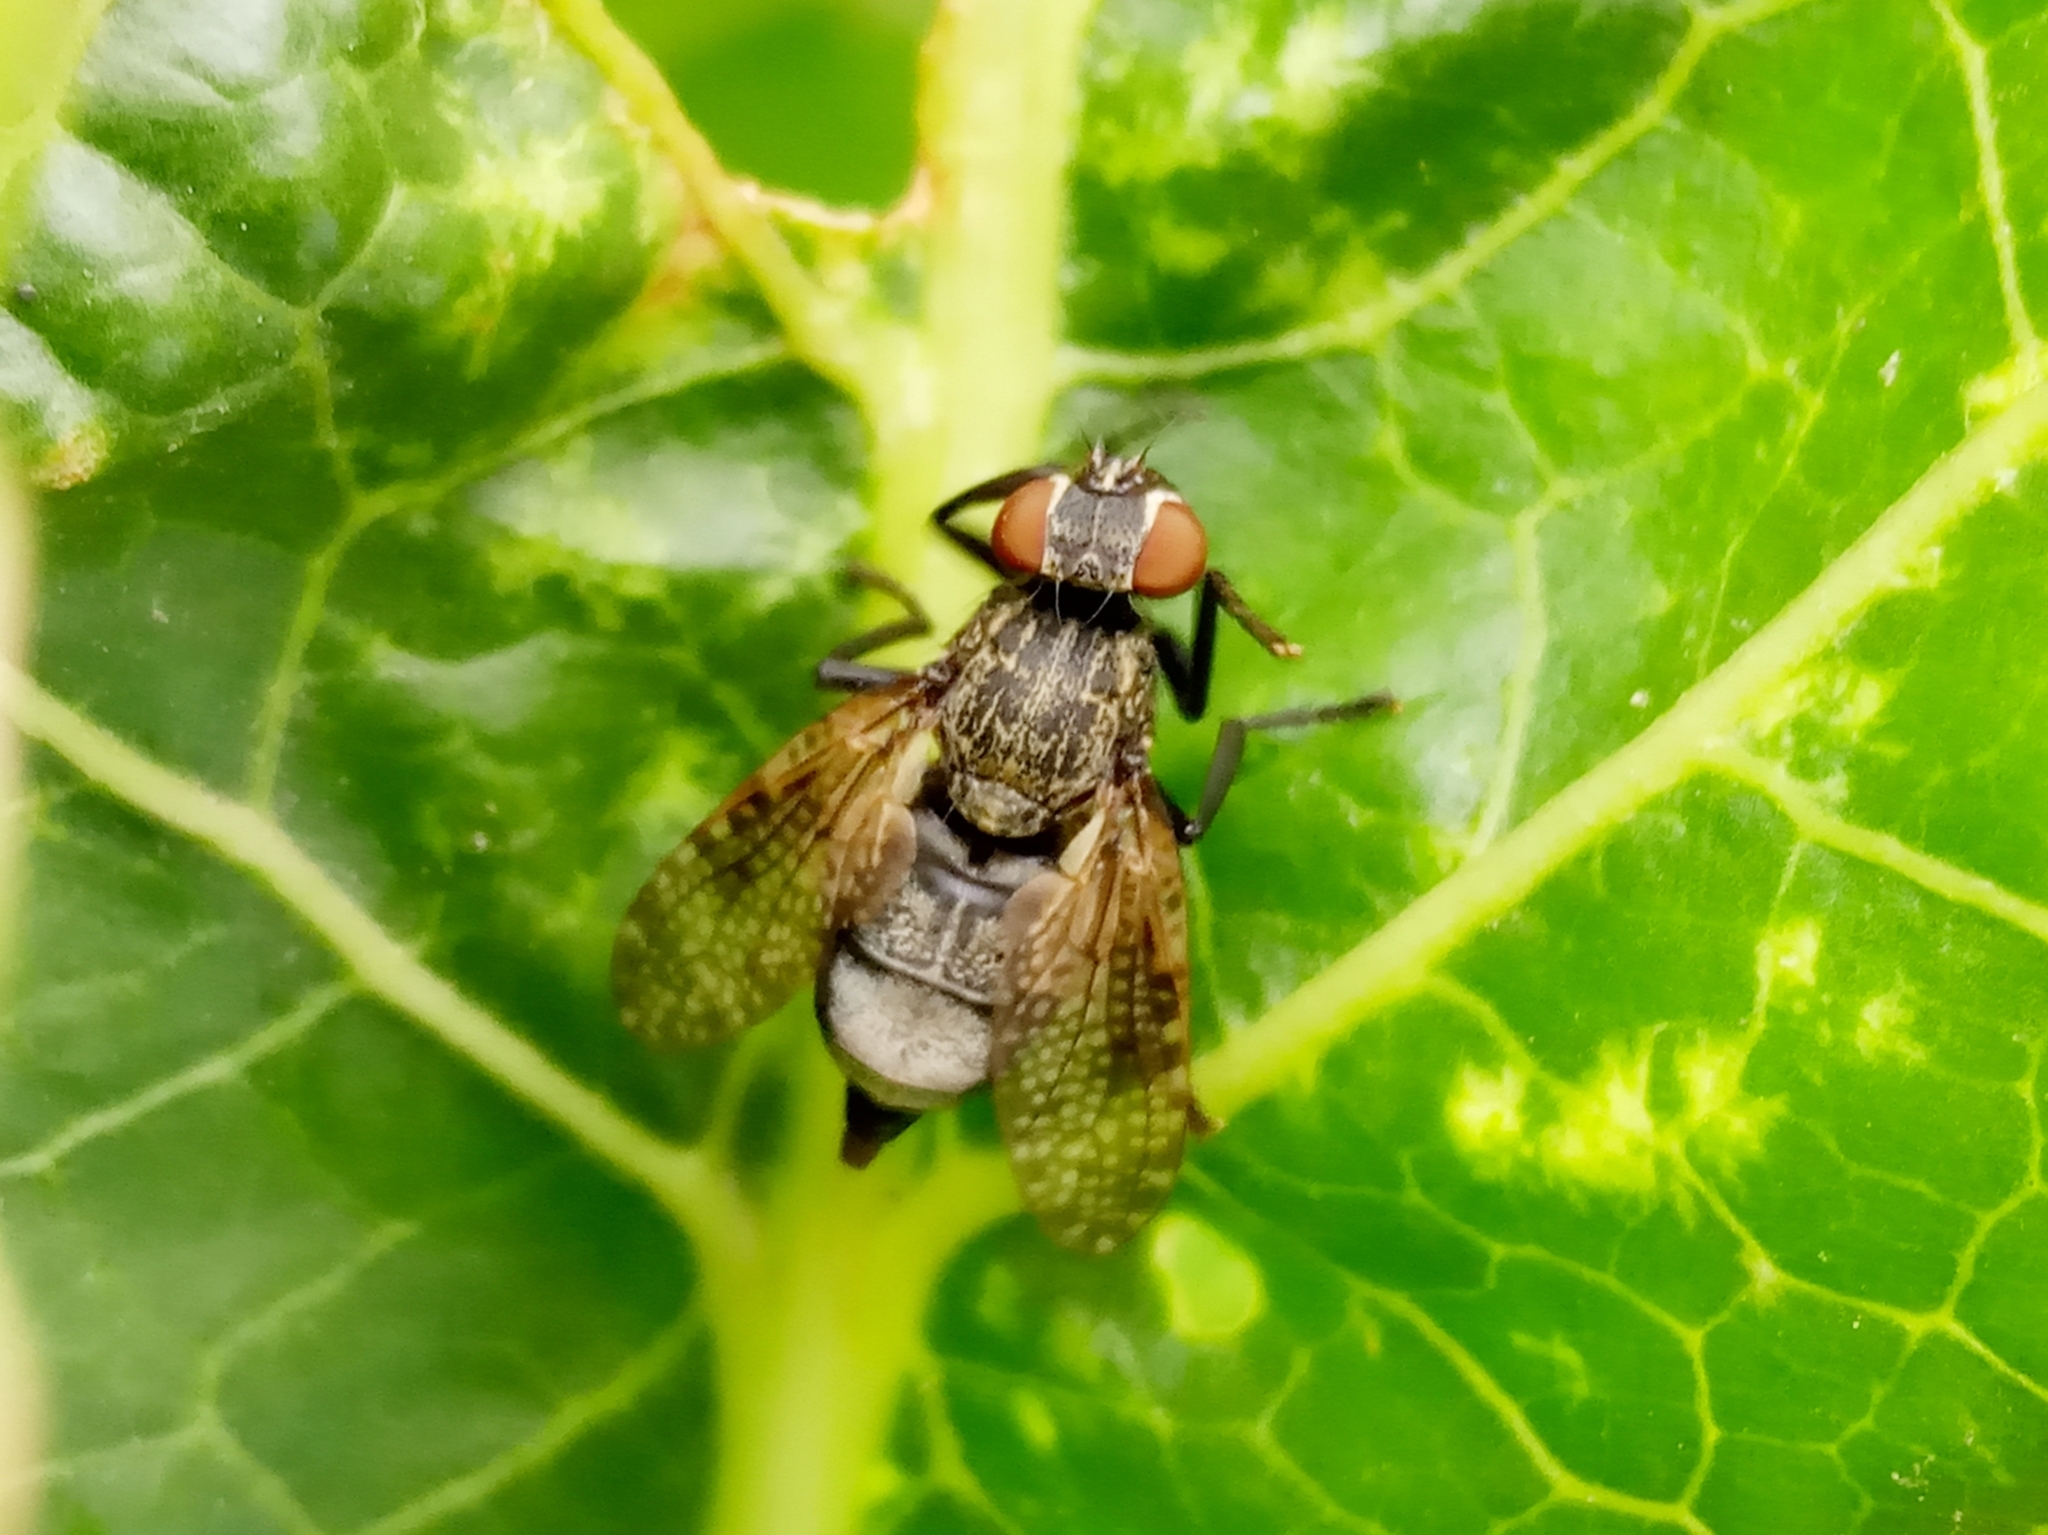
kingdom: Animalia
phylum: Arthropoda
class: Insecta
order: Diptera
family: Platystomatidae
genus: Platystoma
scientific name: Platystoma
